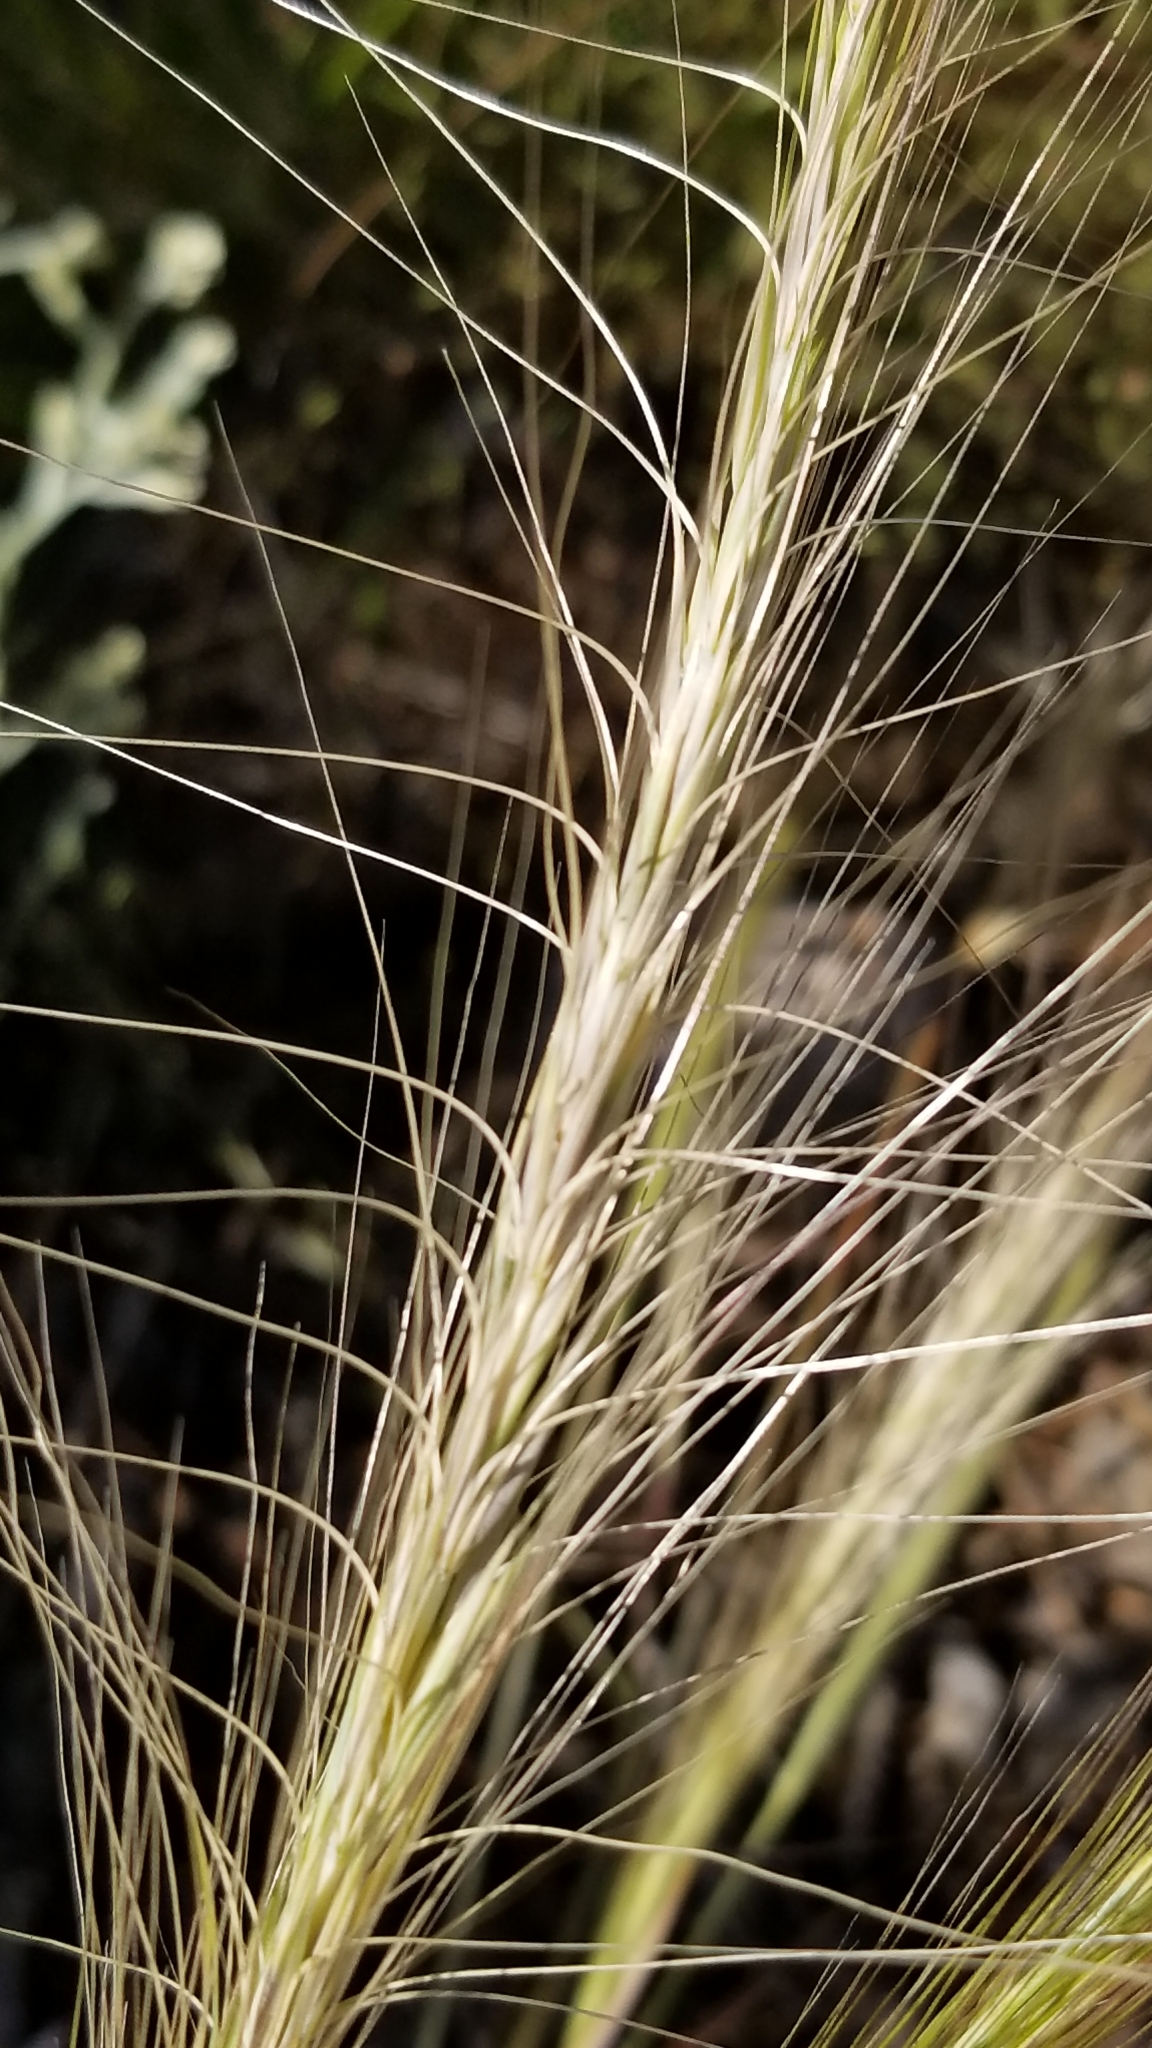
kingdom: Plantae
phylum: Tracheophyta
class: Liliopsida
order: Poales
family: Poaceae
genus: Elymus
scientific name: Elymus elymoides
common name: Bottlebrush squirreltail
